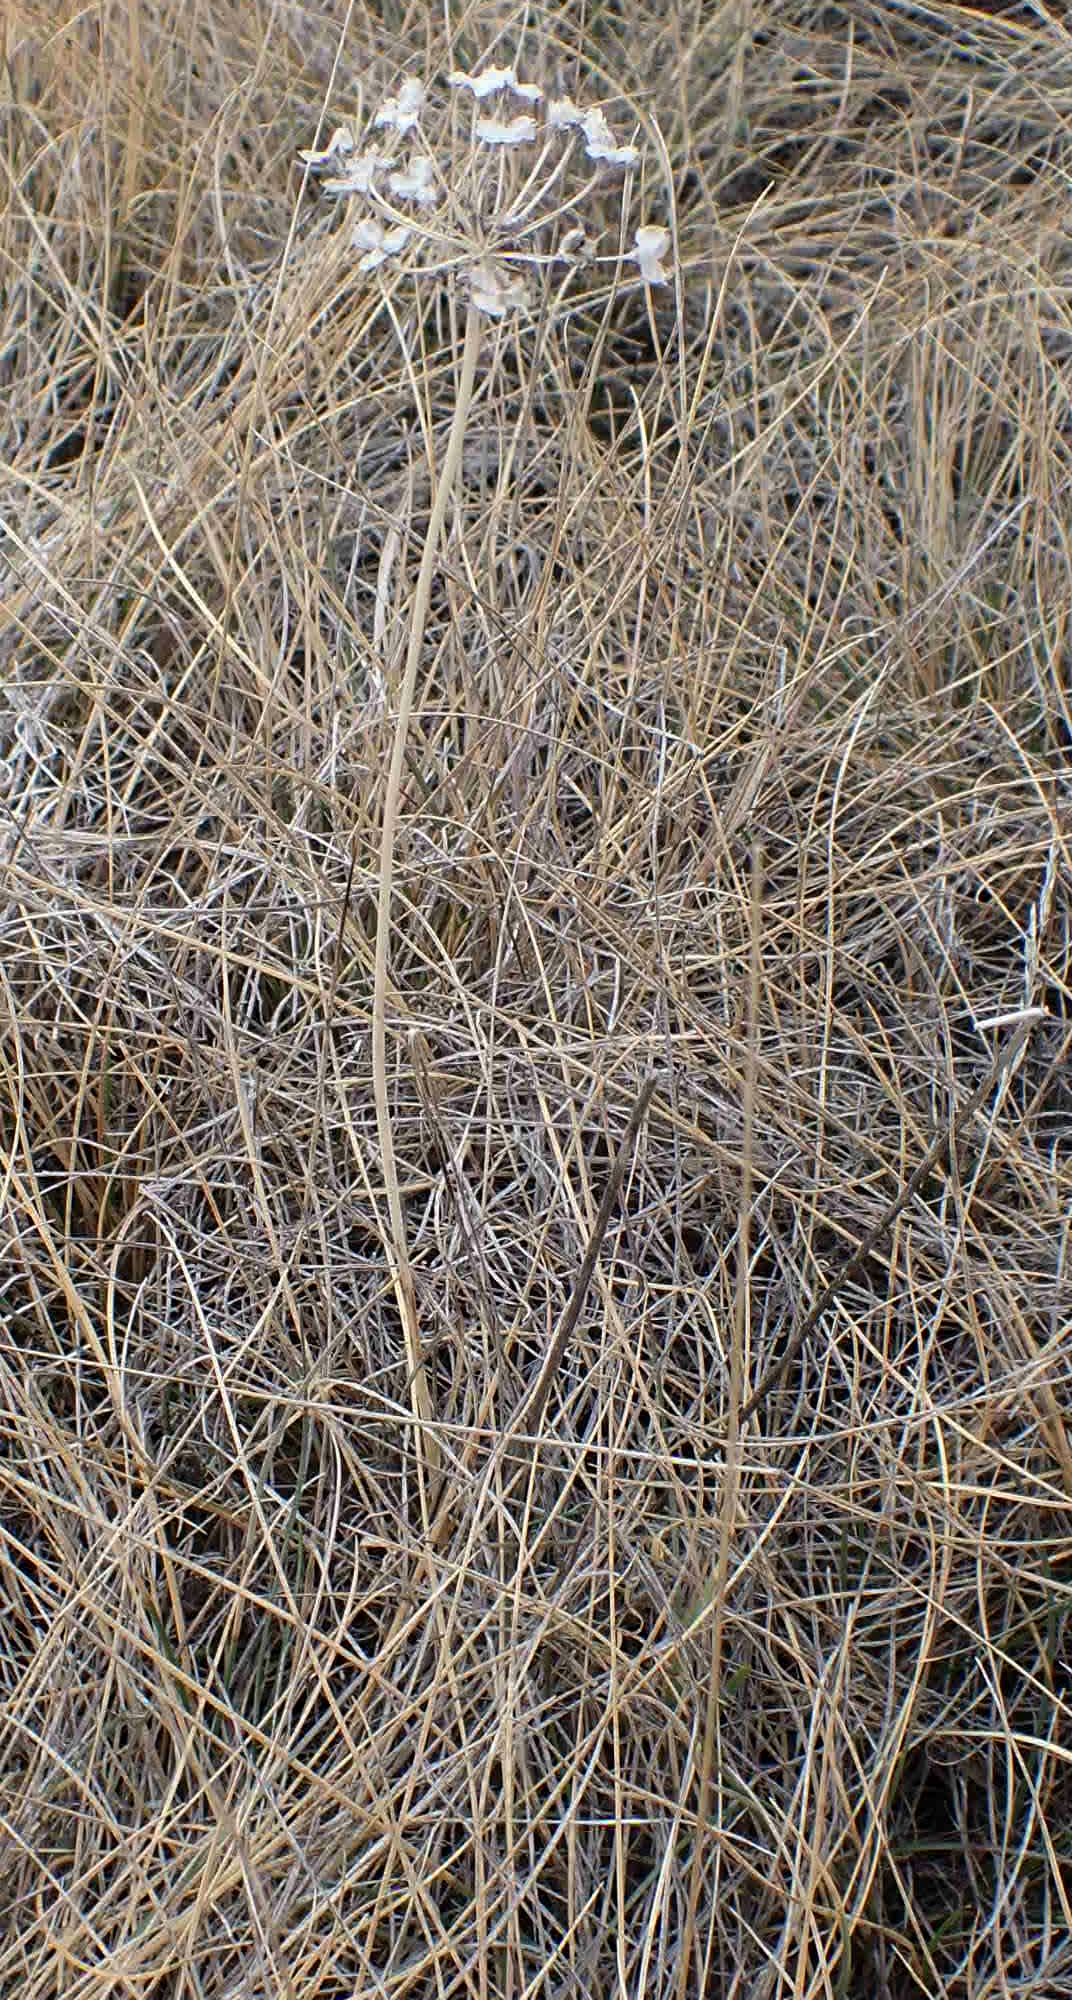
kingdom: Plantae
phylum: Tracheophyta
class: Liliopsida
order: Asparagales
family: Amaryllidaceae
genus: Allium
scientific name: Allium stellatum
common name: Autumn onion
